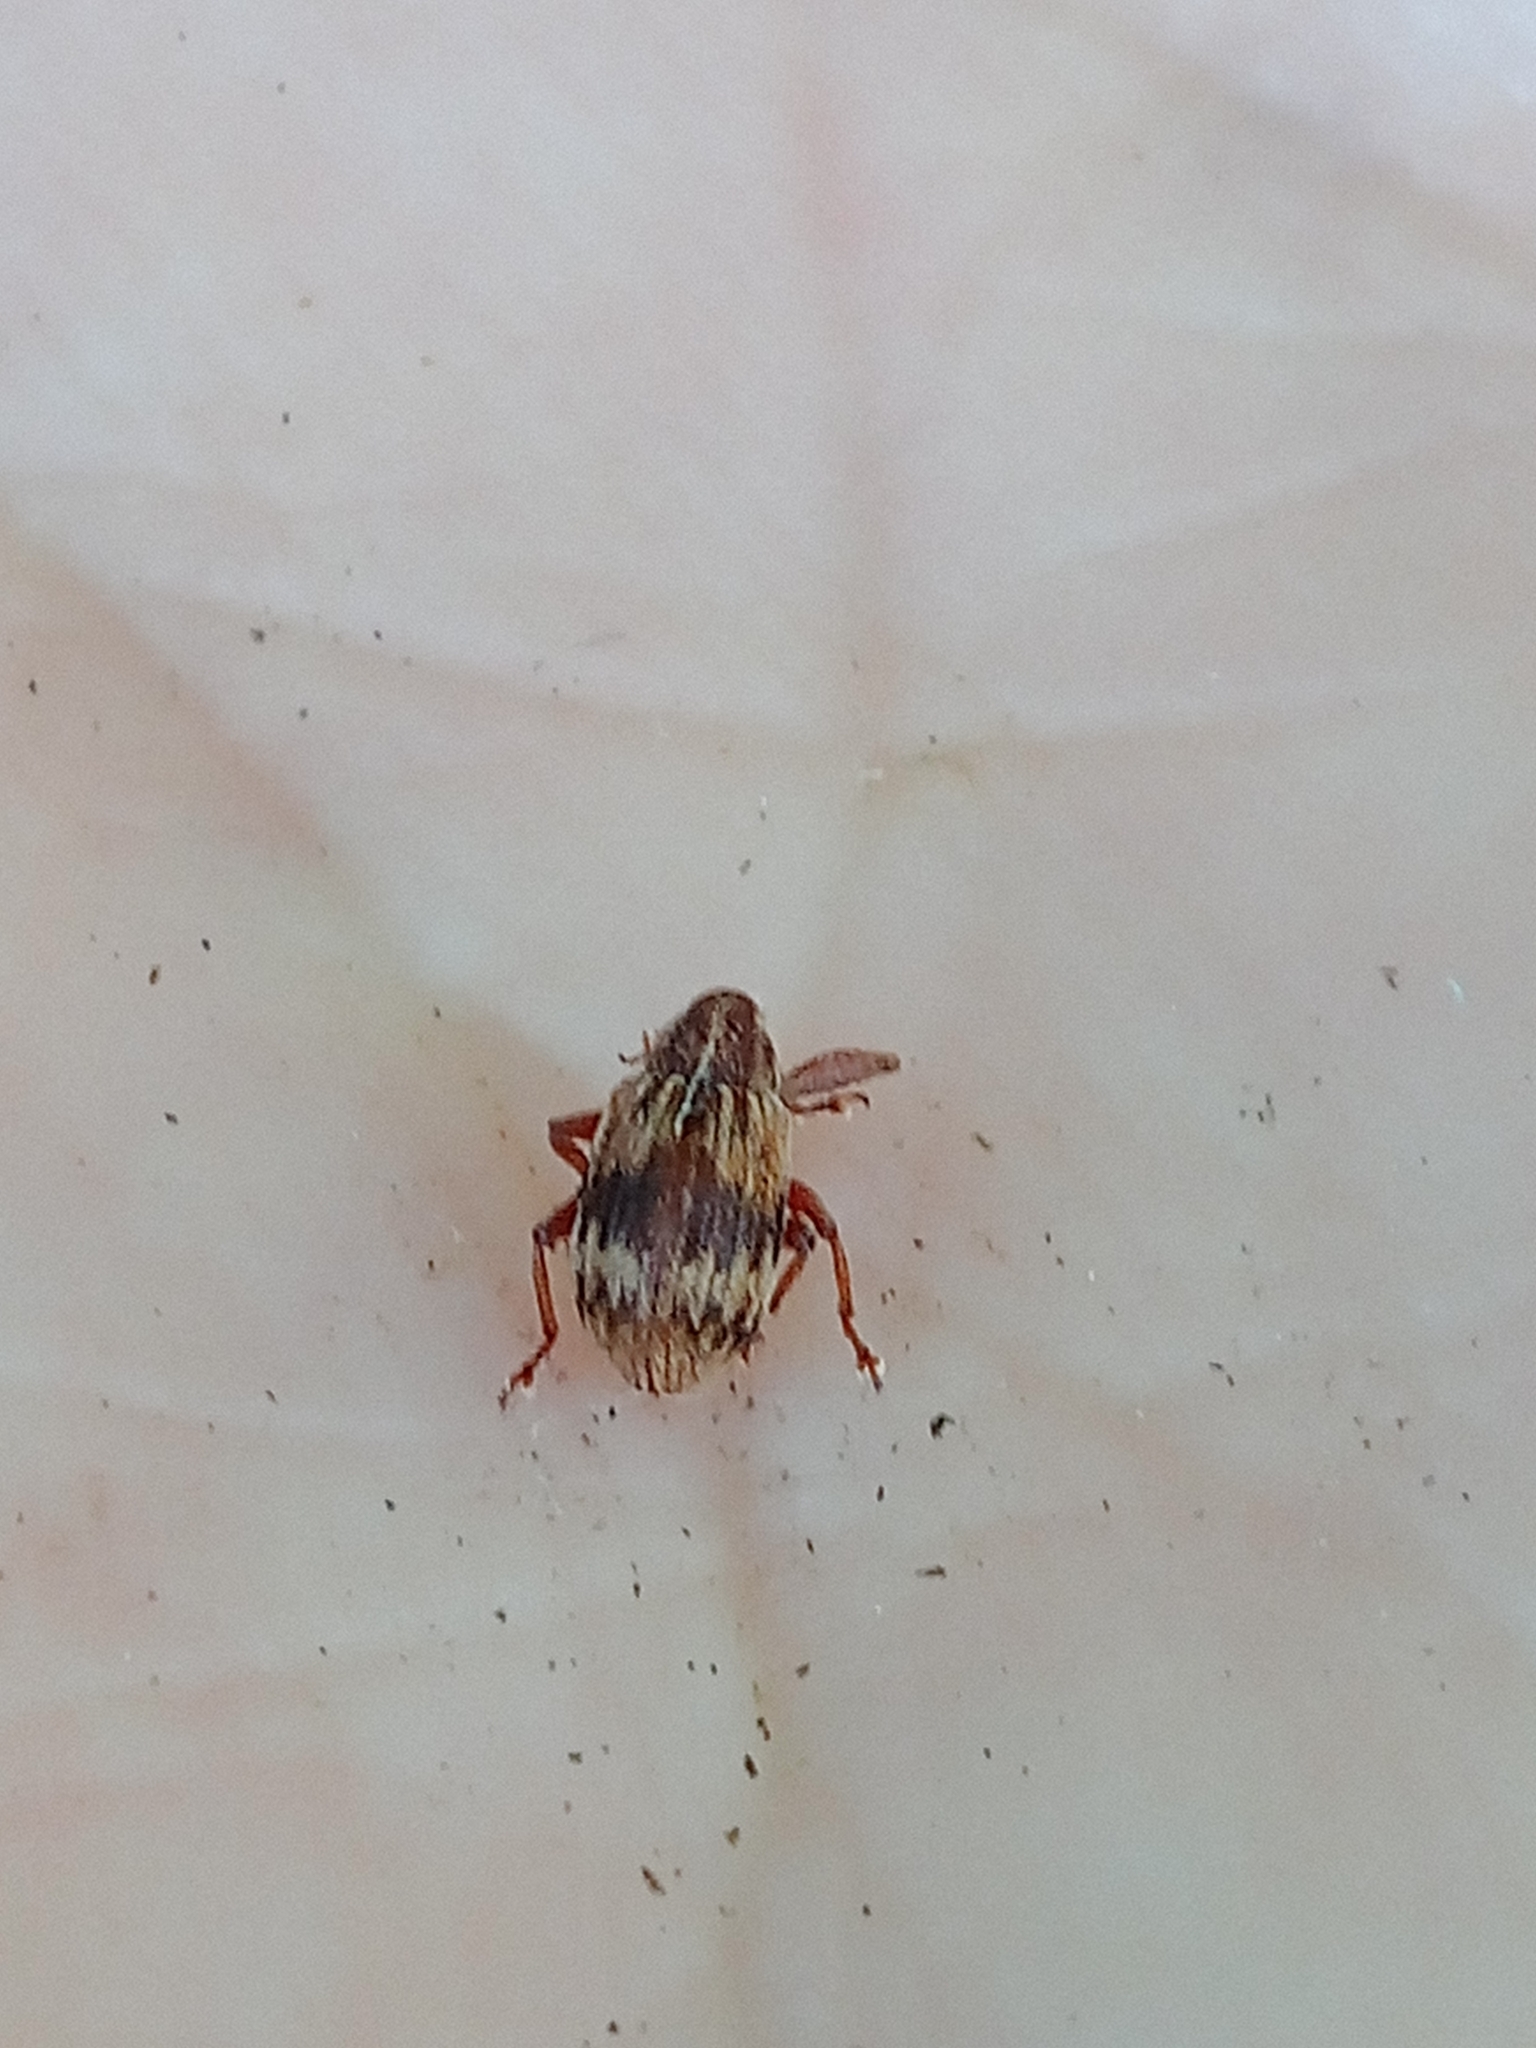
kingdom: Animalia
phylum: Arthropoda
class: Insecta
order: Coleoptera
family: Curculionidae
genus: Anthonomus
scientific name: Anthonomus rectirostris
